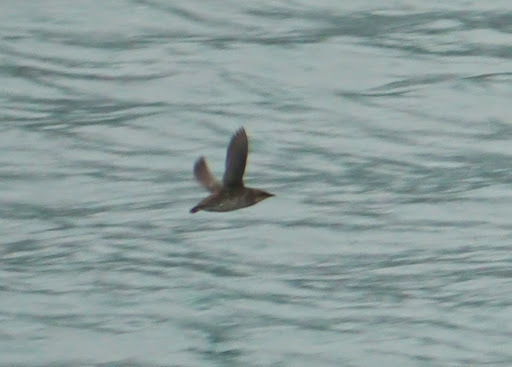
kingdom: Animalia
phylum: Chordata
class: Aves
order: Charadriiformes
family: Alcidae
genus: Brachyramphus
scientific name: Brachyramphus marmoratus
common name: Marbled murrelet
